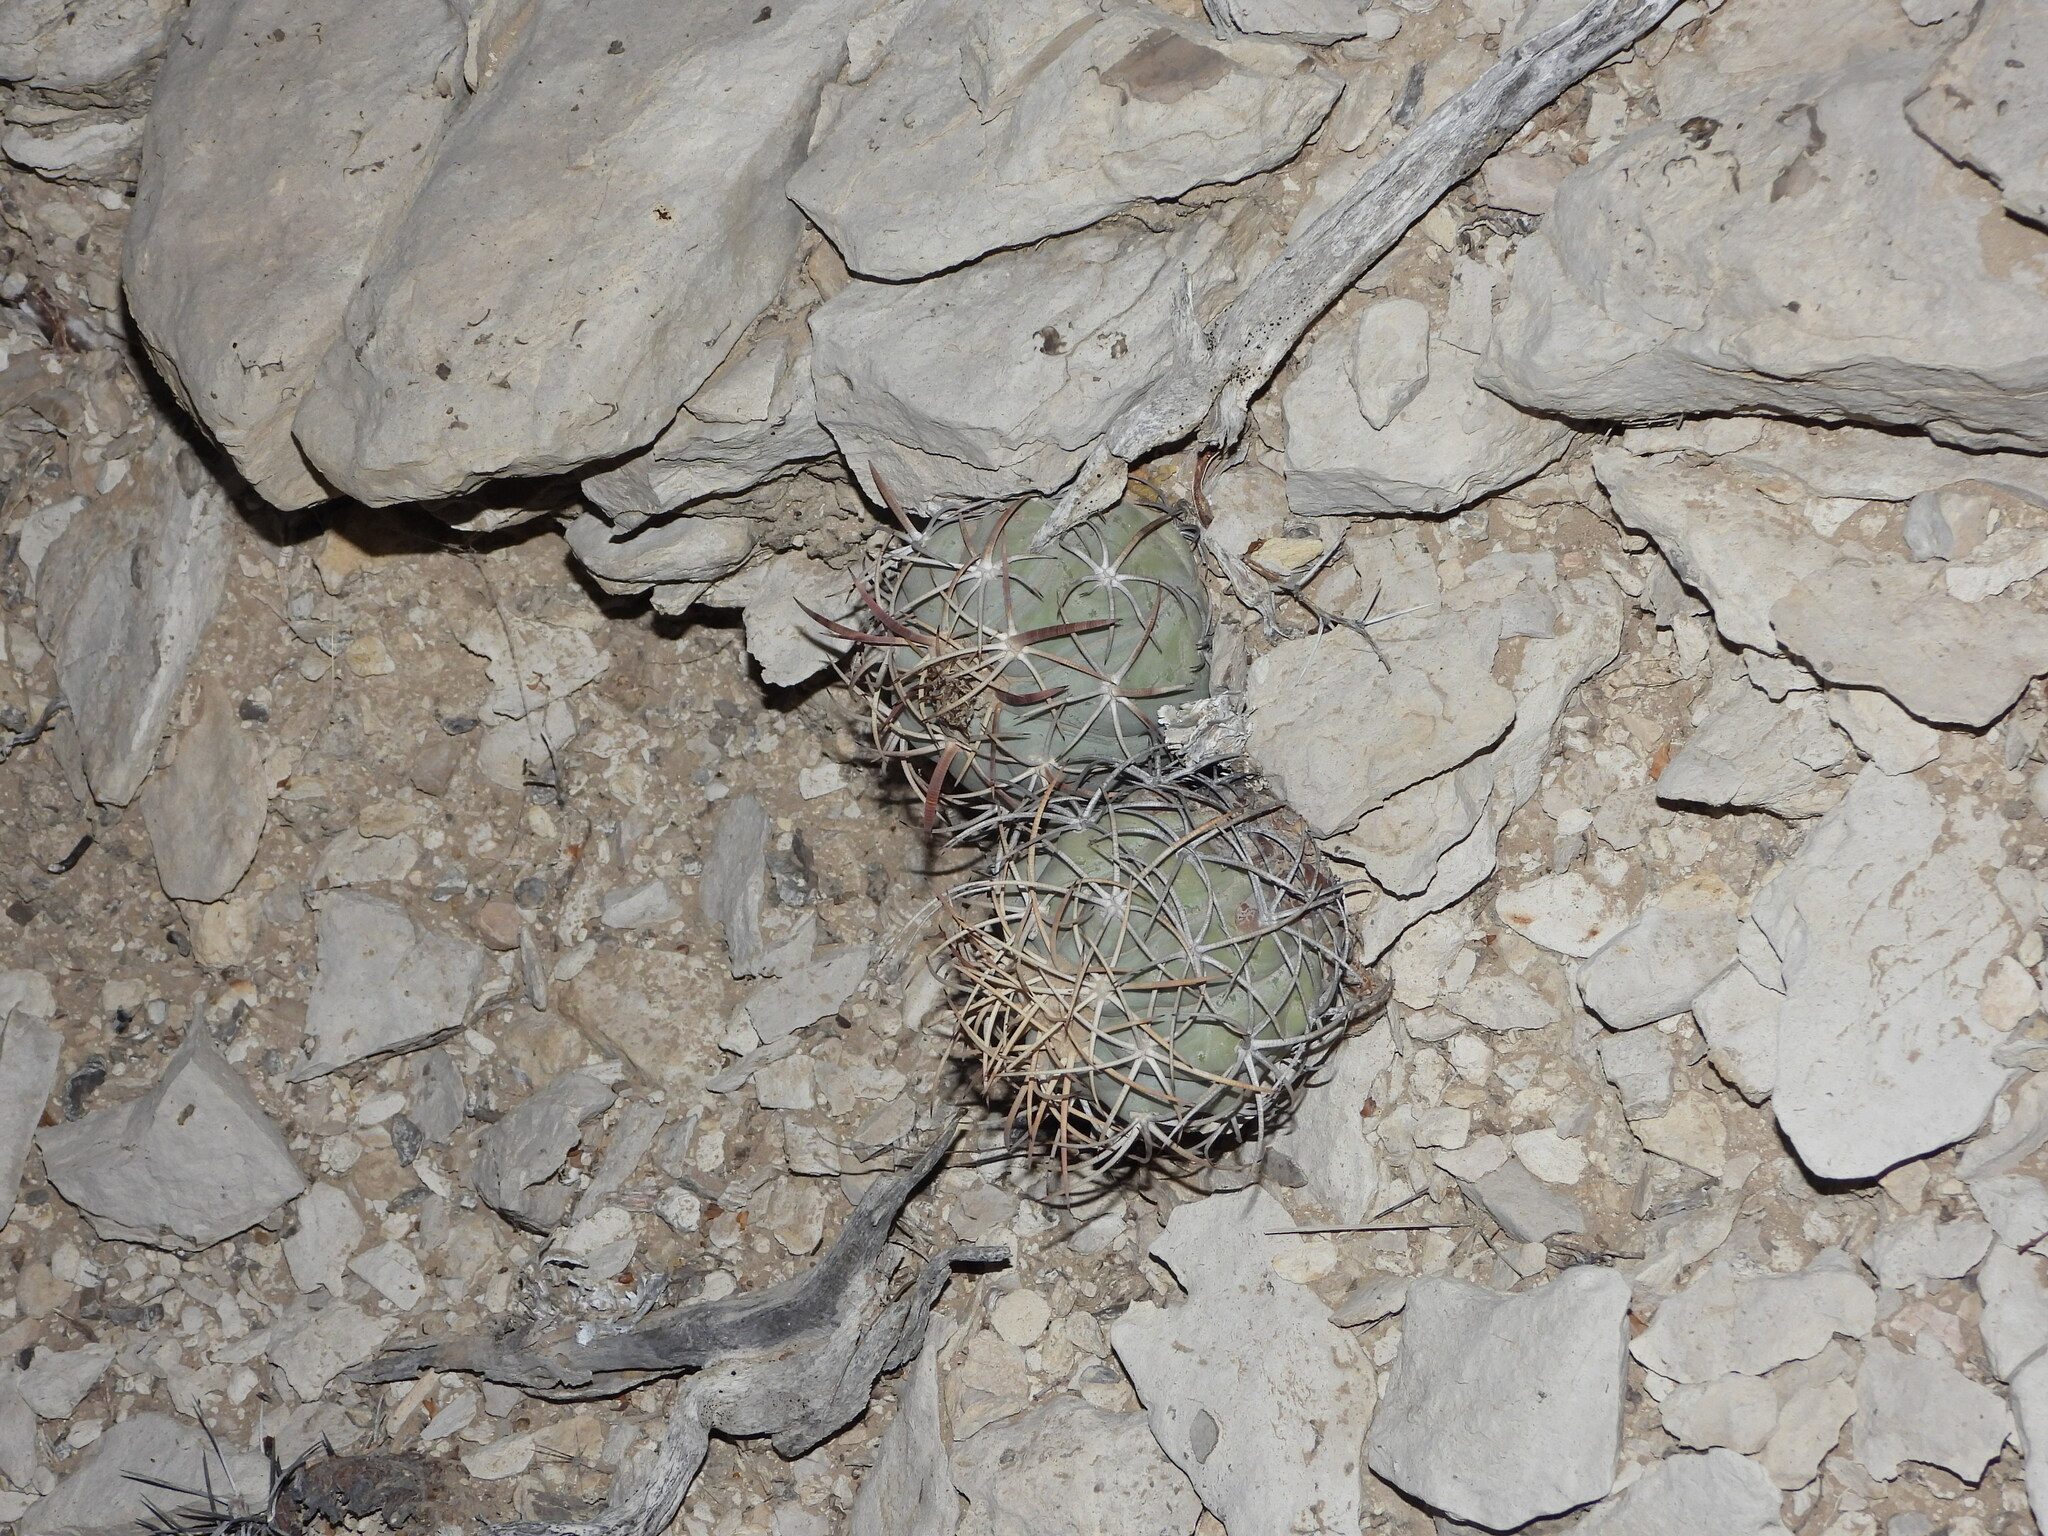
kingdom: Plantae
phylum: Tracheophyta
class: Magnoliopsida
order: Caryophyllales
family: Cactaceae
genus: Echinocactus
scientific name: Echinocactus horizonthalonius
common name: Devilshead
